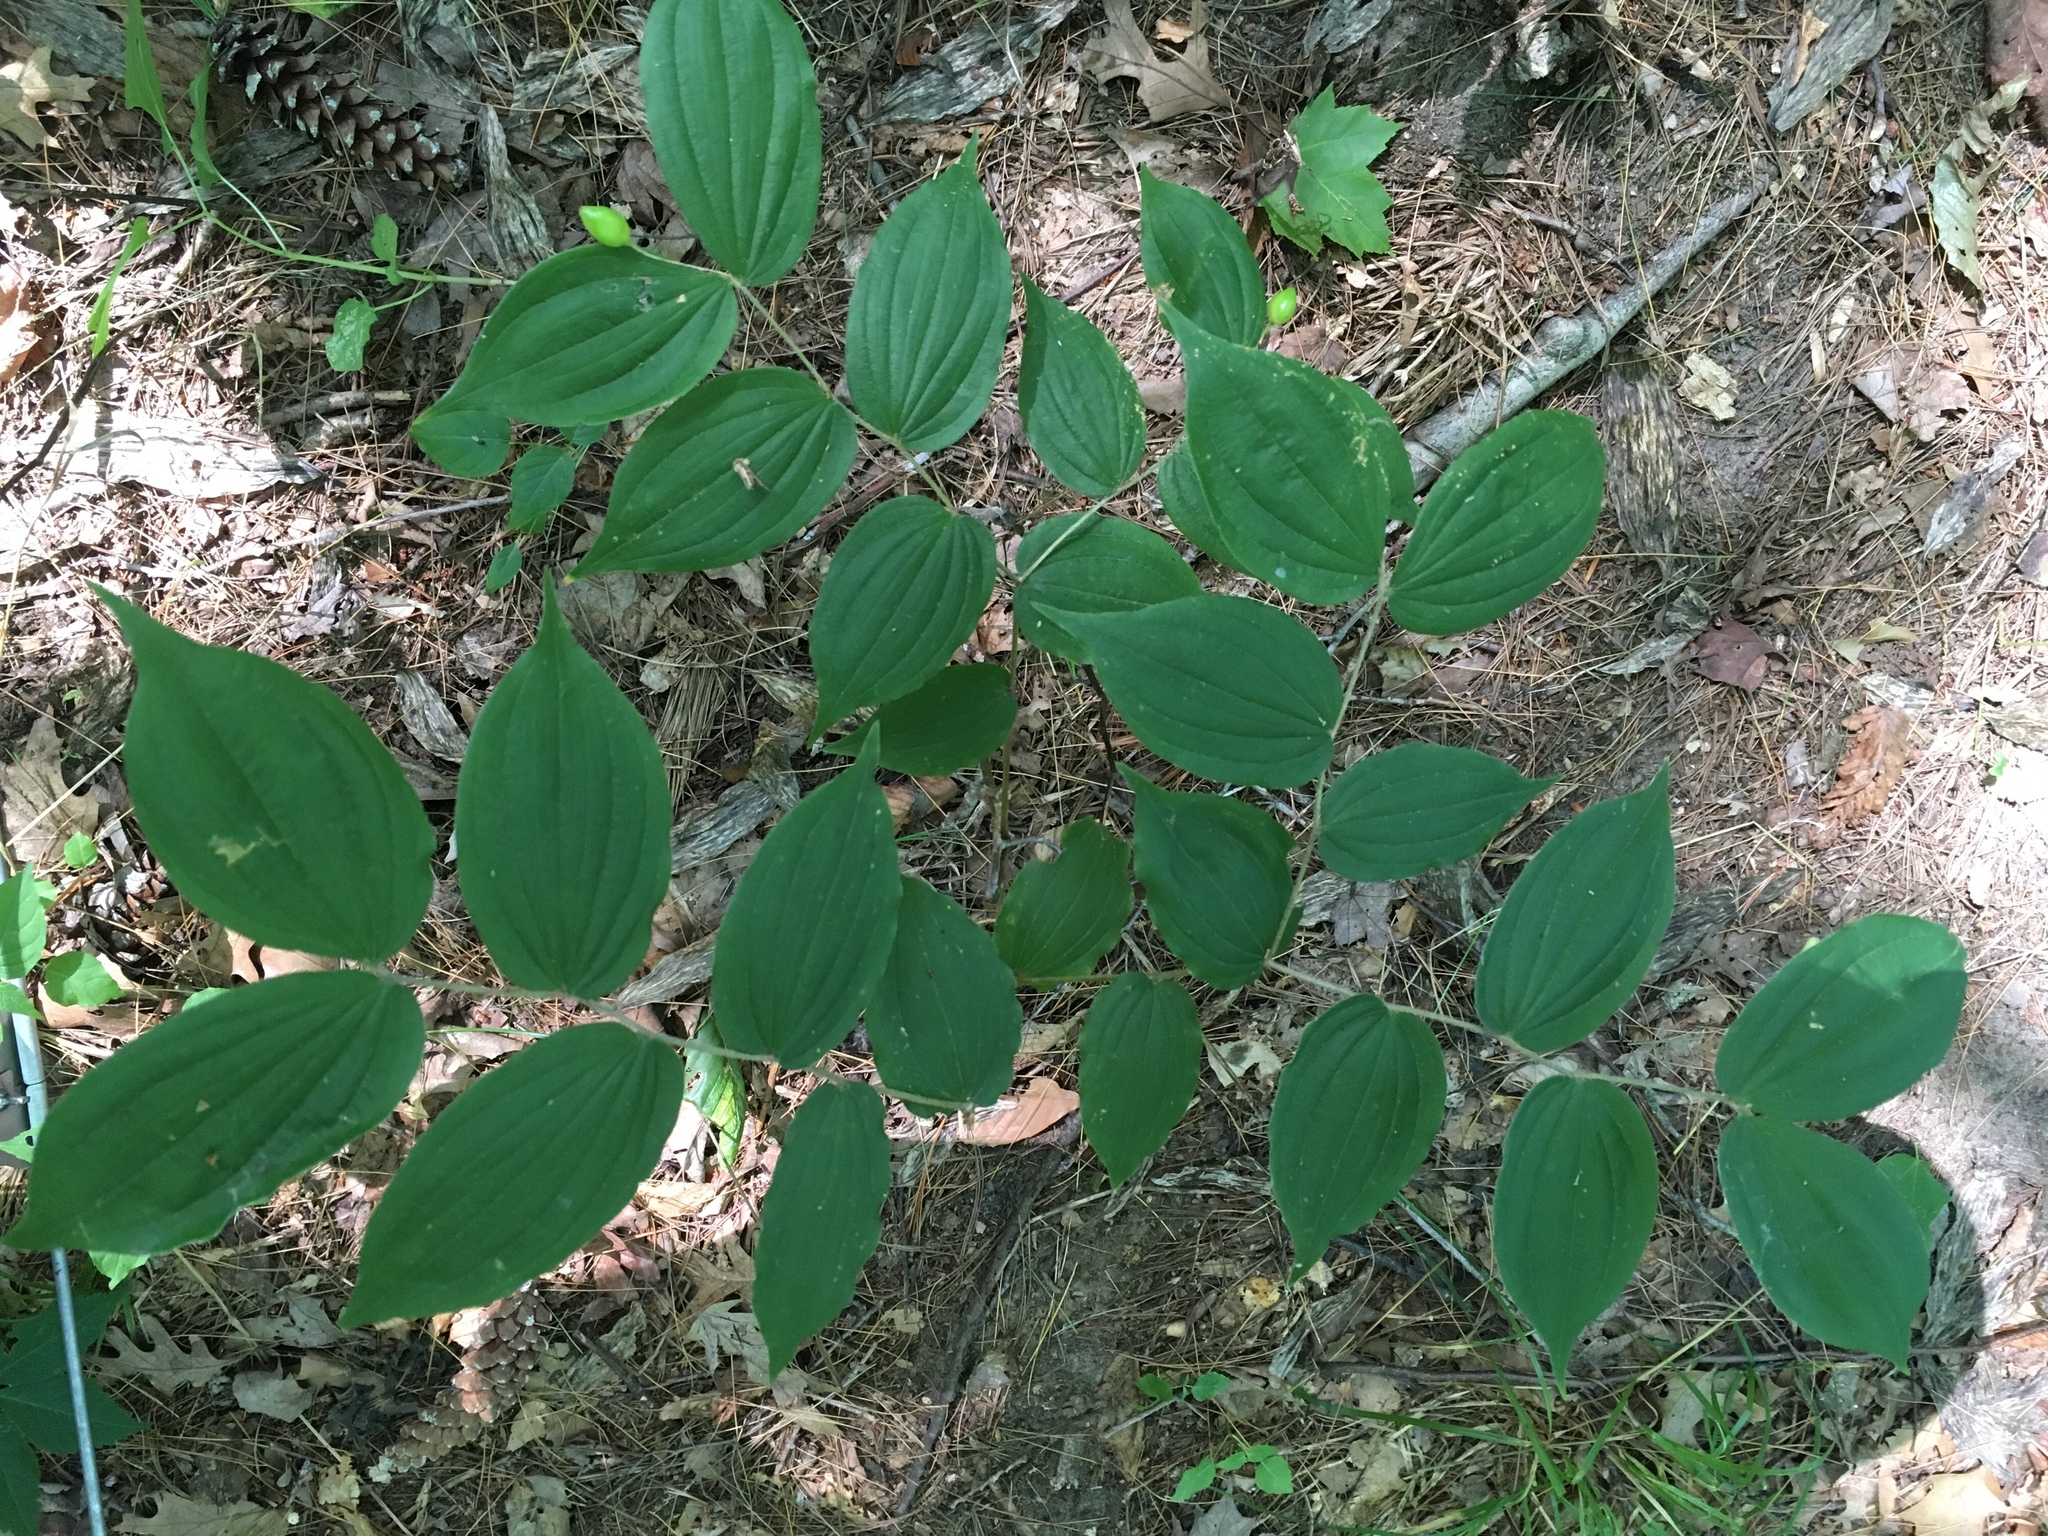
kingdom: Plantae
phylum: Tracheophyta
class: Liliopsida
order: Liliales
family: Liliaceae
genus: Prosartes
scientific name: Prosartes lanuginosa
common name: Hairy mandarin
